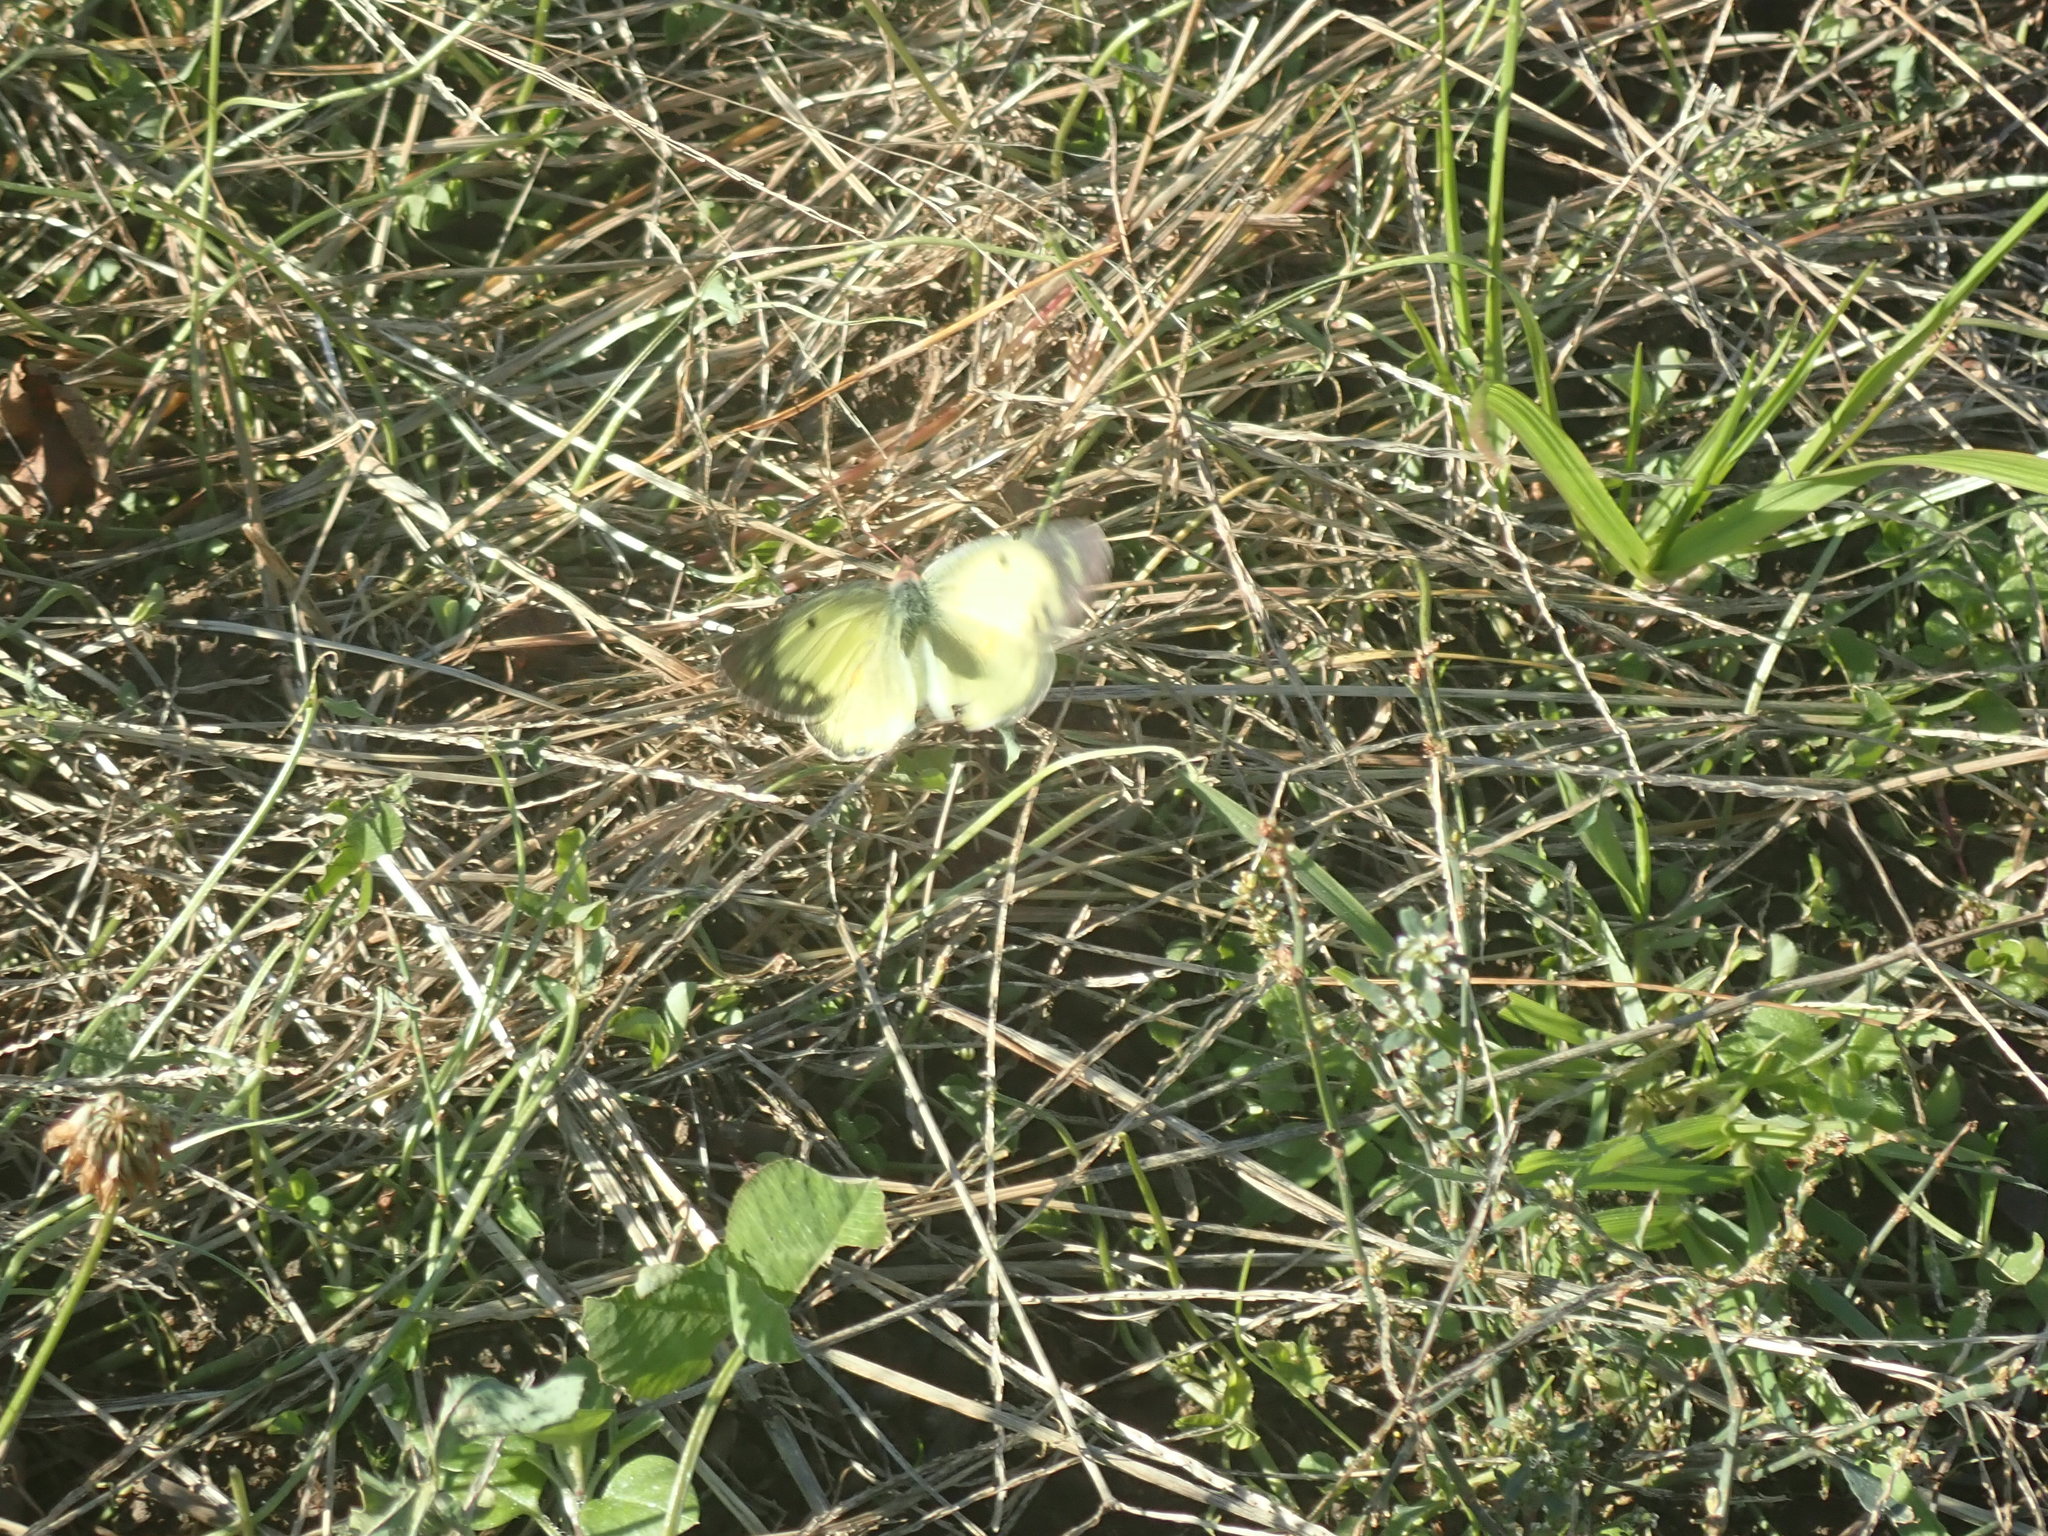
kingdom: Animalia
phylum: Arthropoda
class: Insecta
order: Lepidoptera
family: Pieridae
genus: Colias
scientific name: Colias philodice
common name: Clouded sulphur
